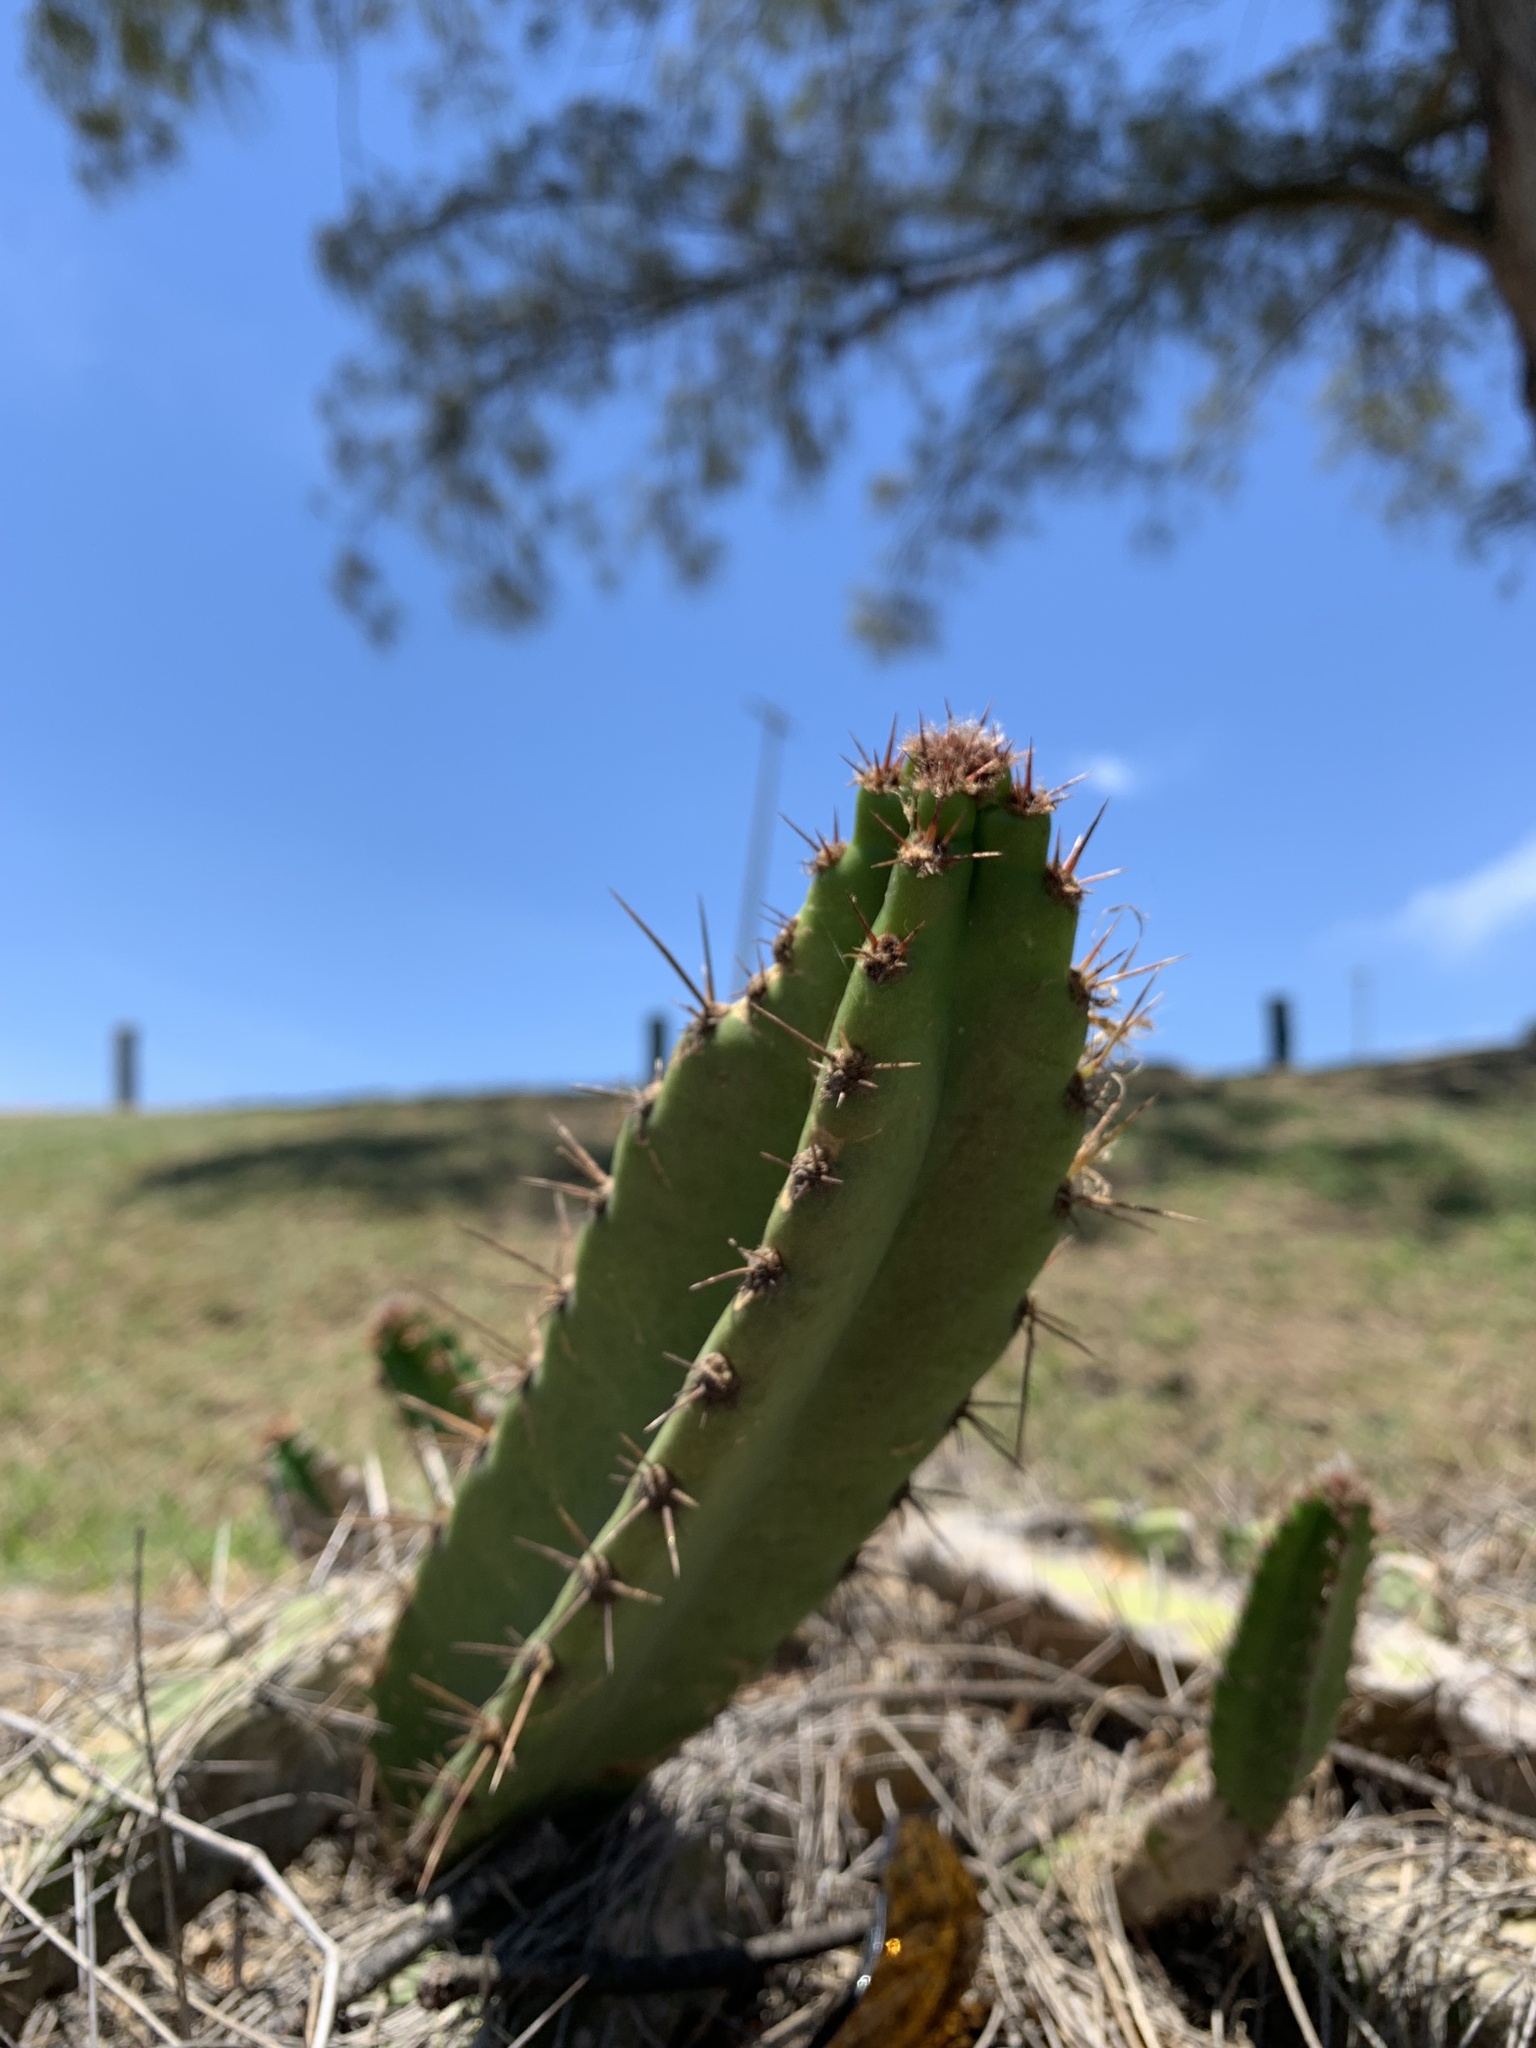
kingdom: Plantae
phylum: Tracheophyta
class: Magnoliopsida
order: Caryophyllales
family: Cactaceae
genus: Cereus
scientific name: Cereus fernambucensis
